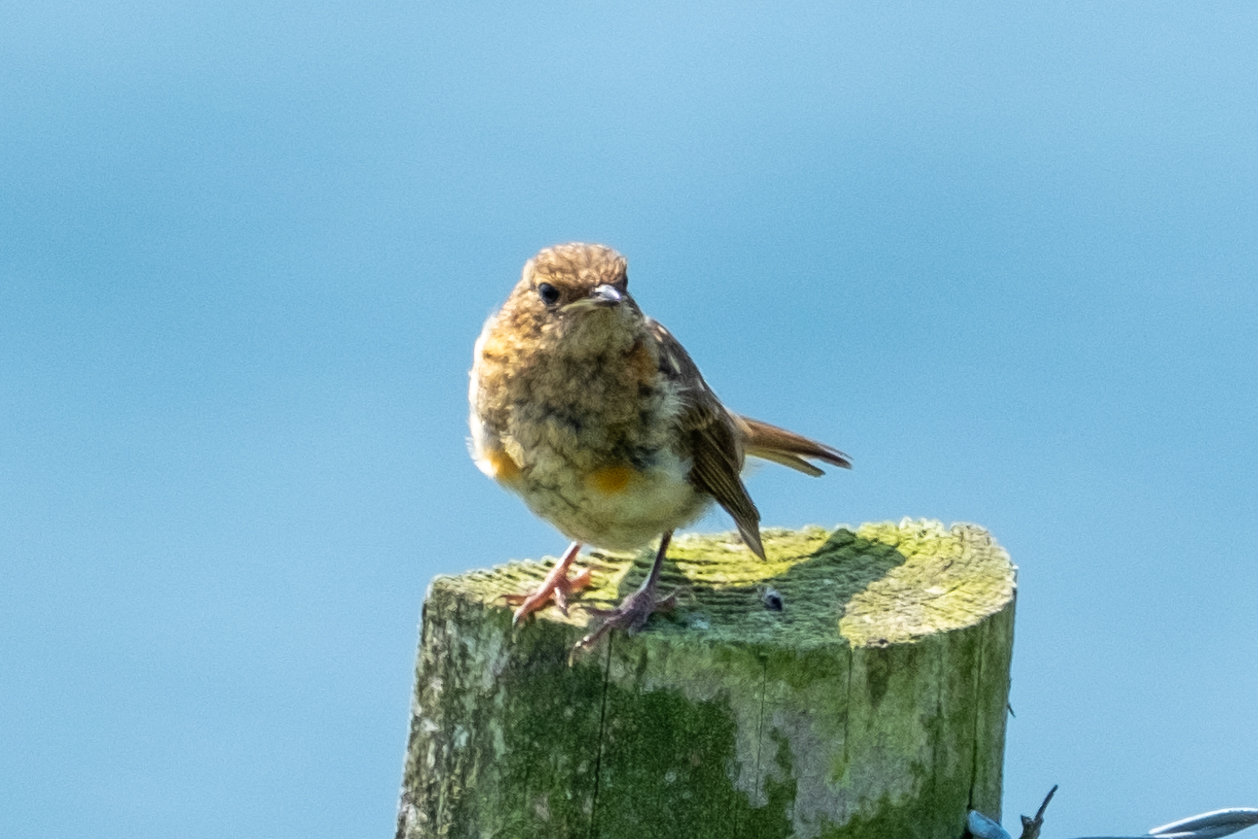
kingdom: Animalia
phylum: Chordata
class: Aves
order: Passeriformes
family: Muscicapidae
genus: Erithacus
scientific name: Erithacus rubecula
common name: European robin
